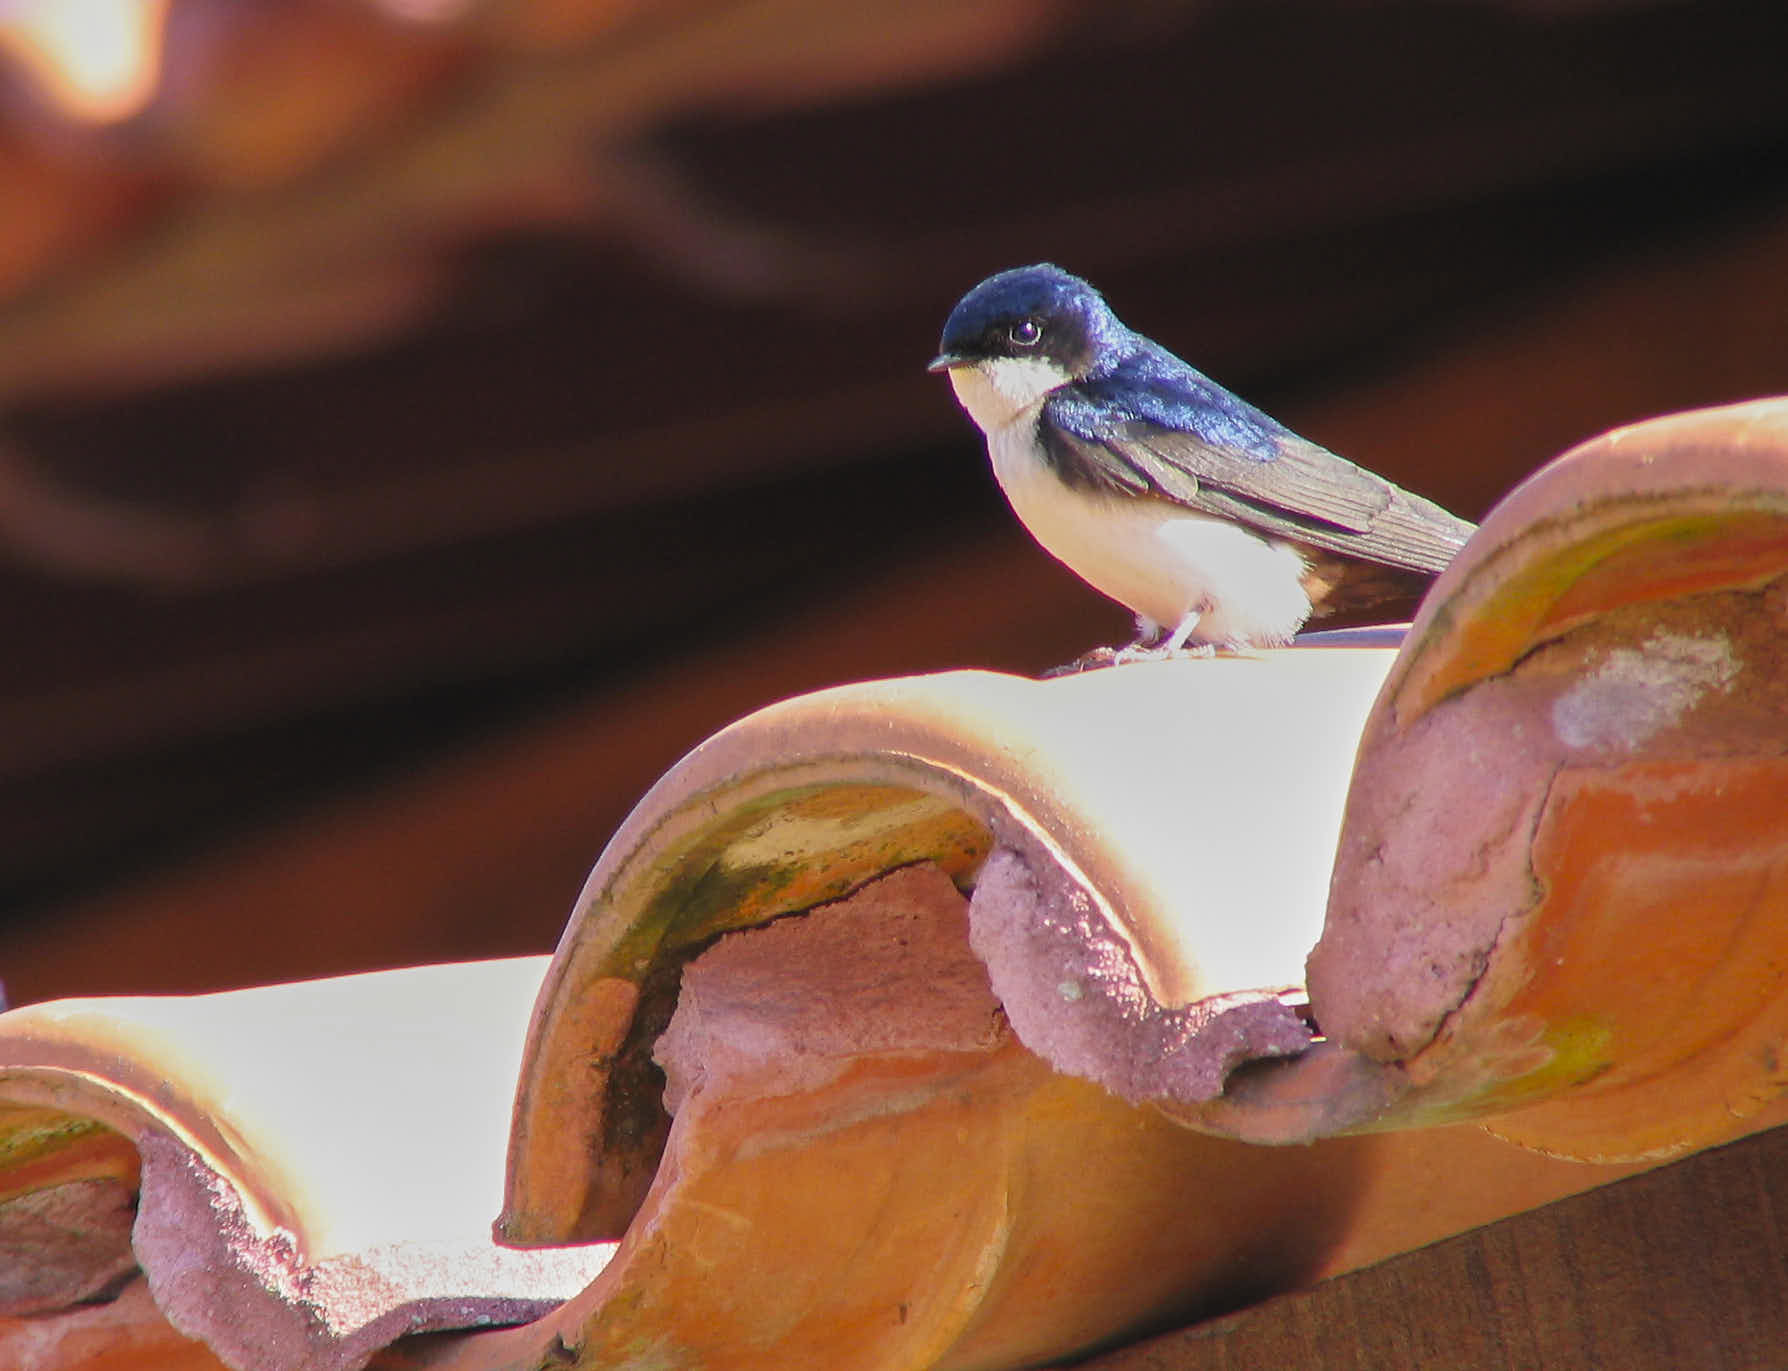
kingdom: Animalia
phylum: Chordata
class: Aves
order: Passeriformes
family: Hirundinidae
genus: Notiochelidon
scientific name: Notiochelidon cyanoleuca
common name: Blue-and-white swallow
